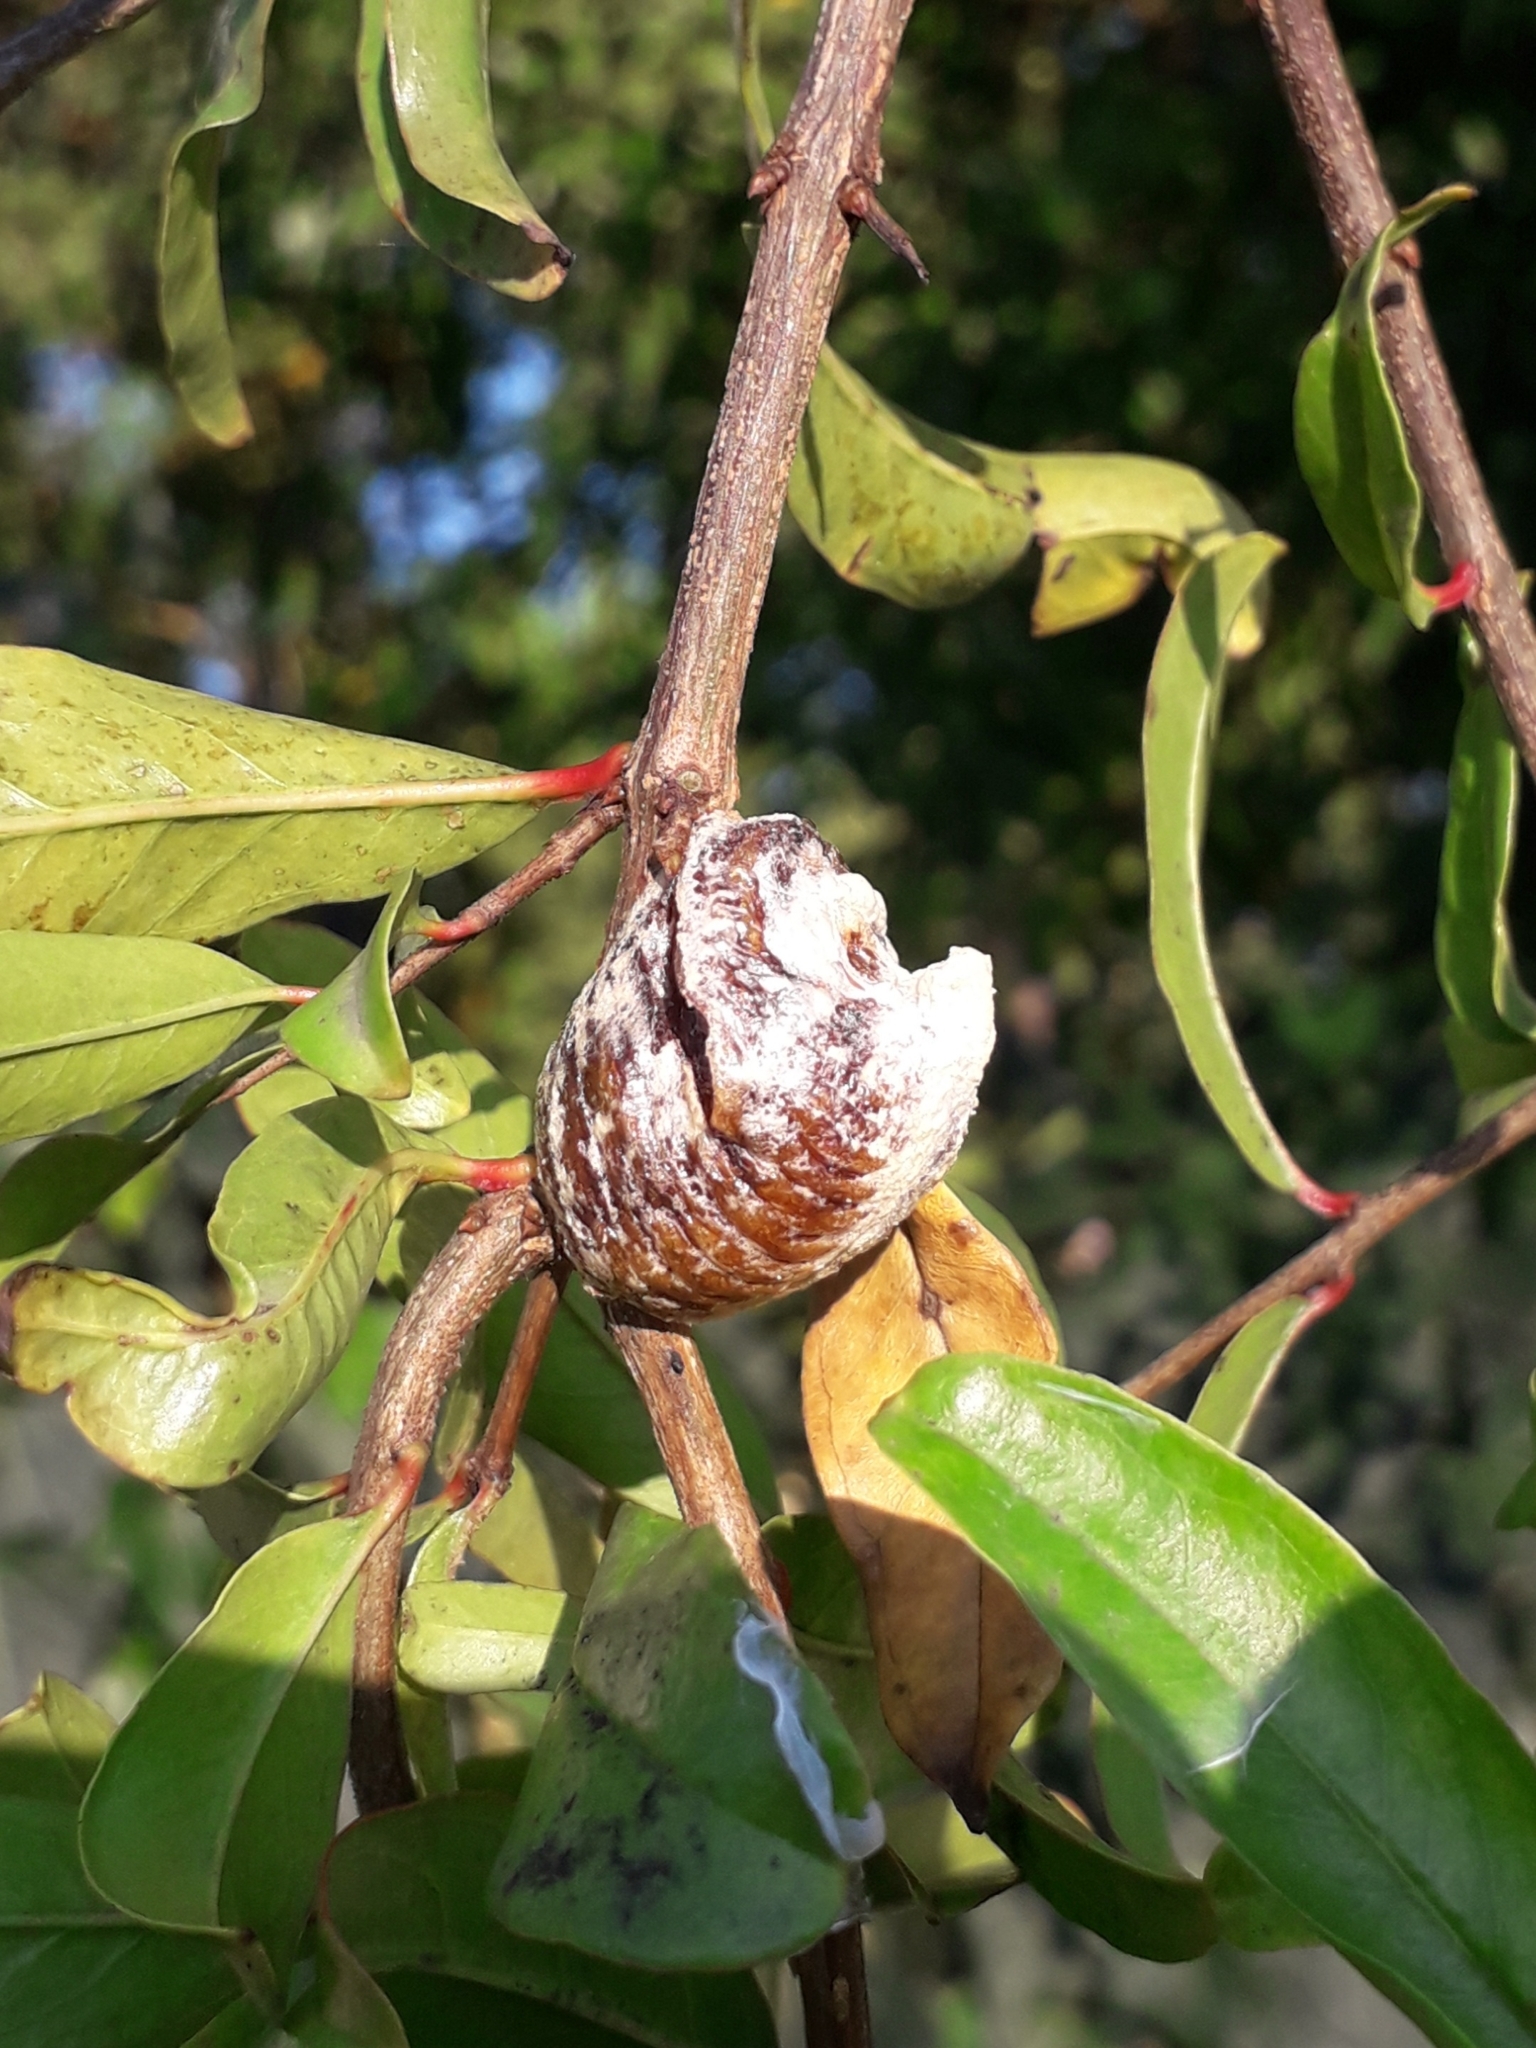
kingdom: Animalia
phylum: Arthropoda
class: Insecta
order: Mantodea
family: Mantidae
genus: Hierodula
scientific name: Hierodula transcaucasica
